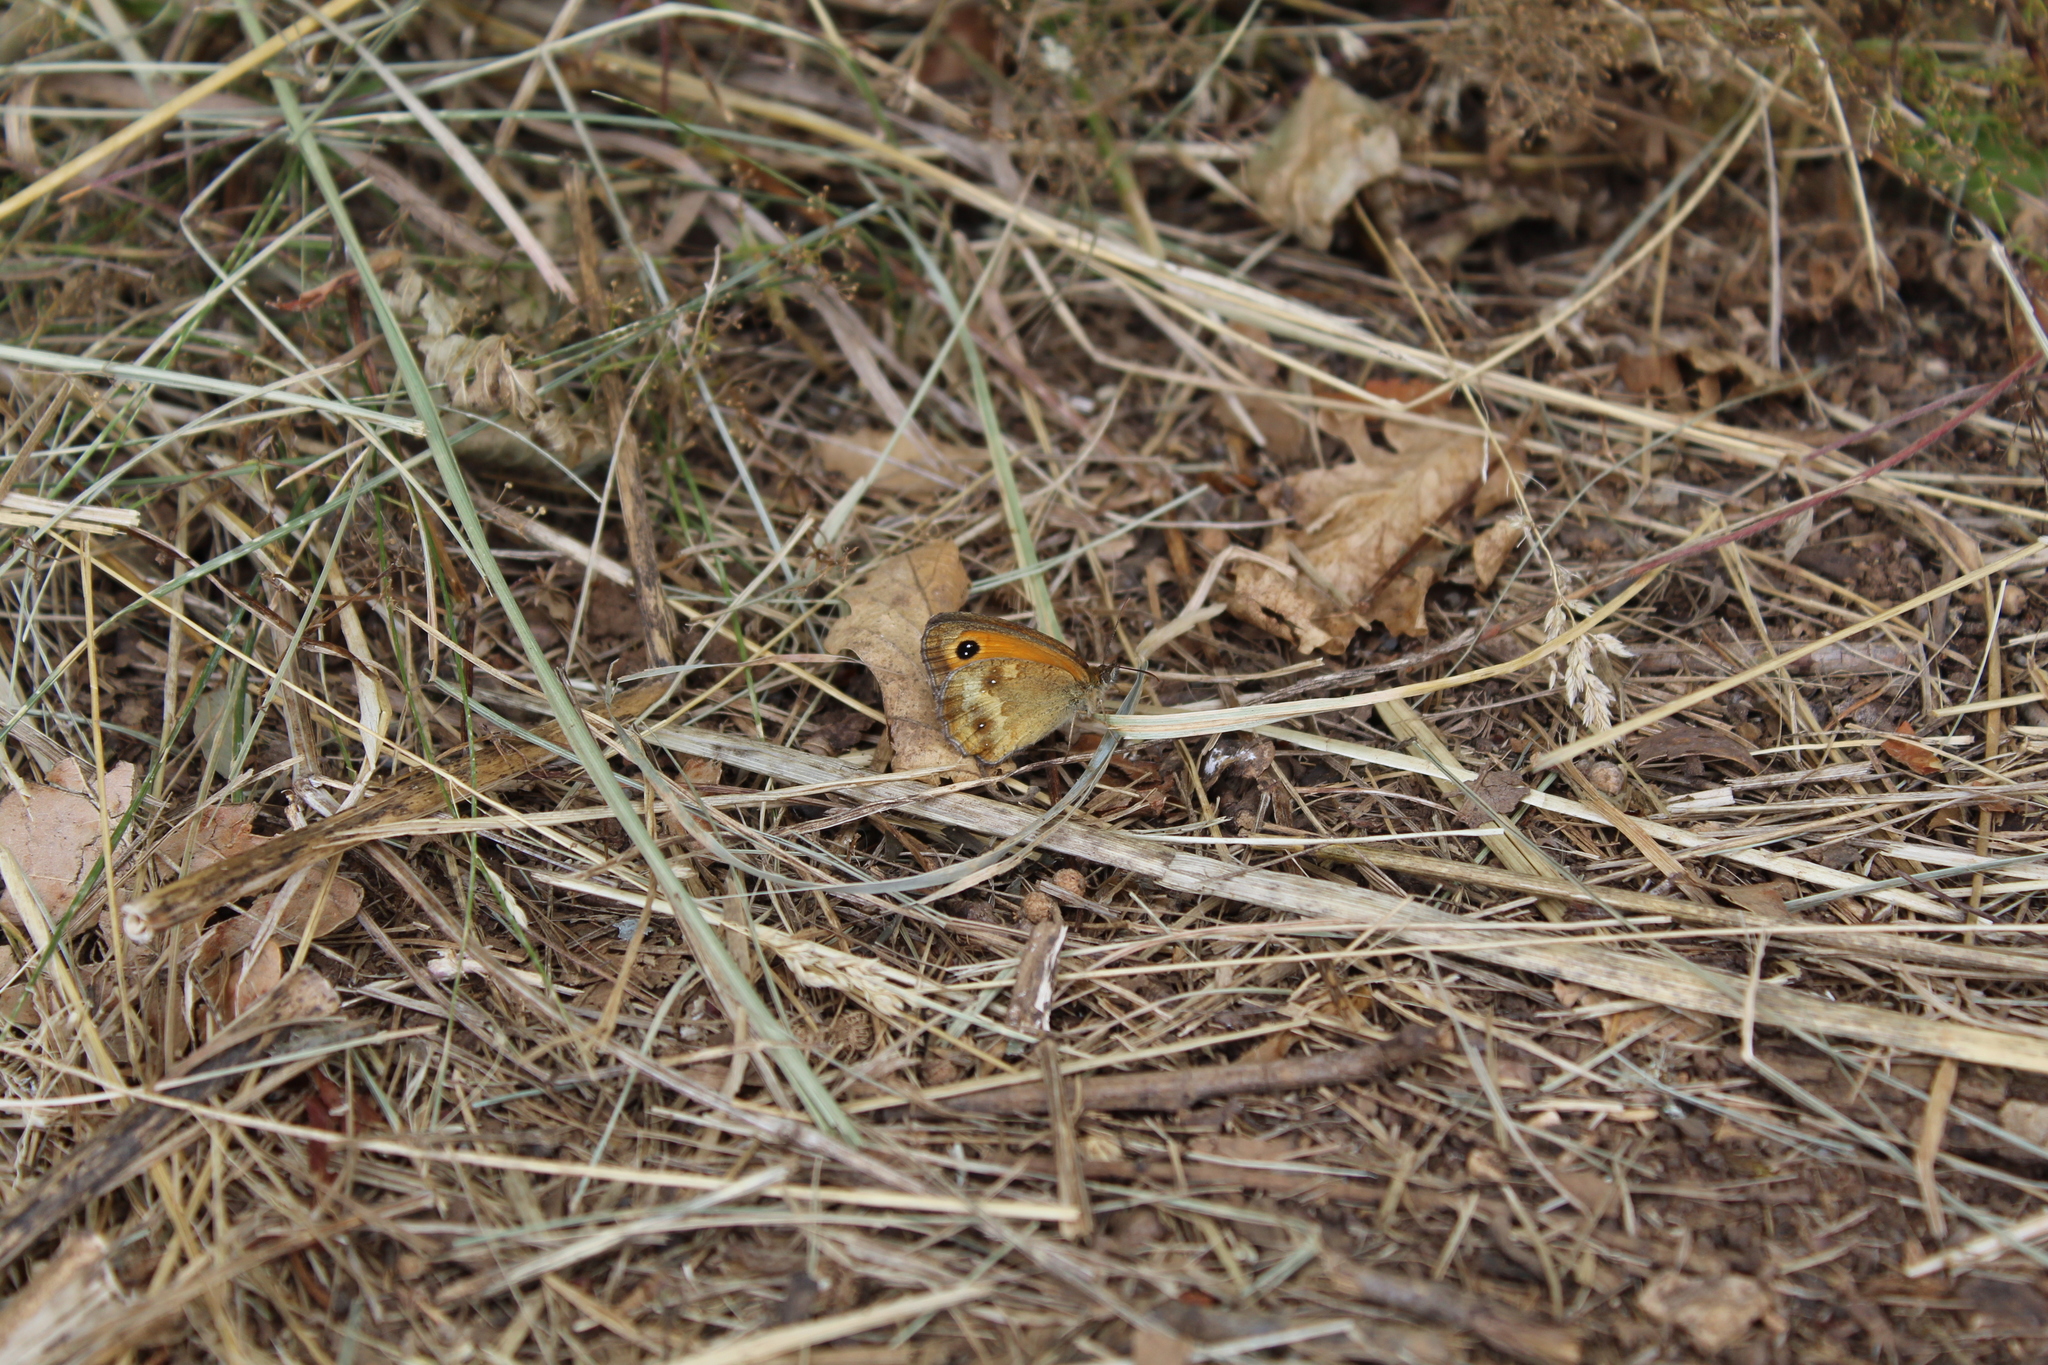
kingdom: Animalia
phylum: Arthropoda
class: Insecta
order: Lepidoptera
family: Nymphalidae
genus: Pyronia
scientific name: Pyronia tithonus
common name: Gatekeeper
